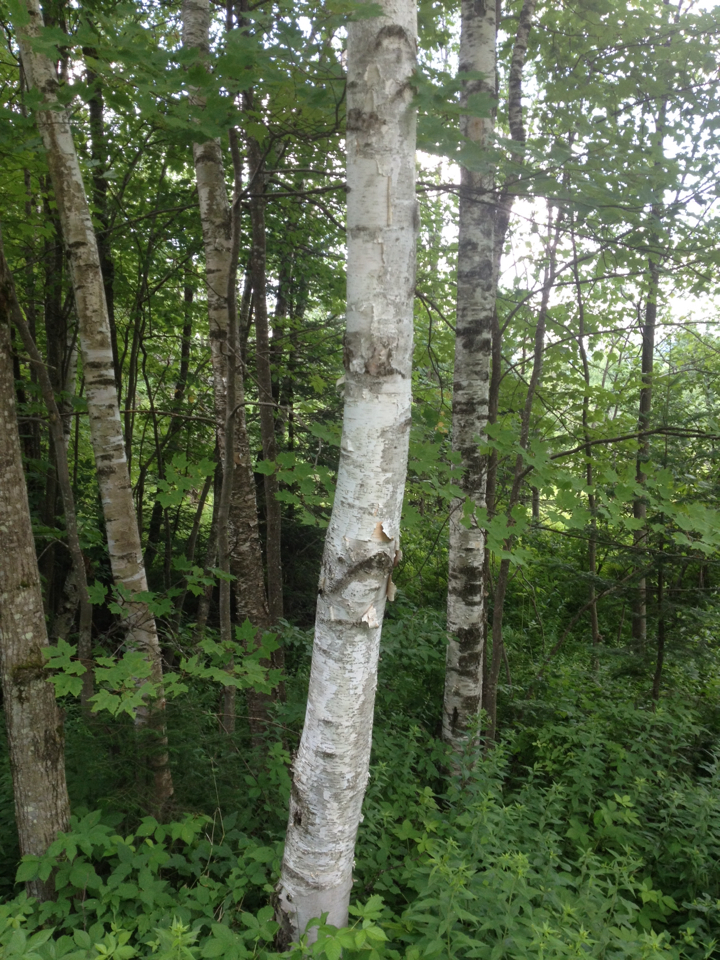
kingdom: Plantae
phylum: Tracheophyta
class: Magnoliopsida
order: Fagales
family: Betulaceae
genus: Betula
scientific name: Betula papyrifera
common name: Paper birch
